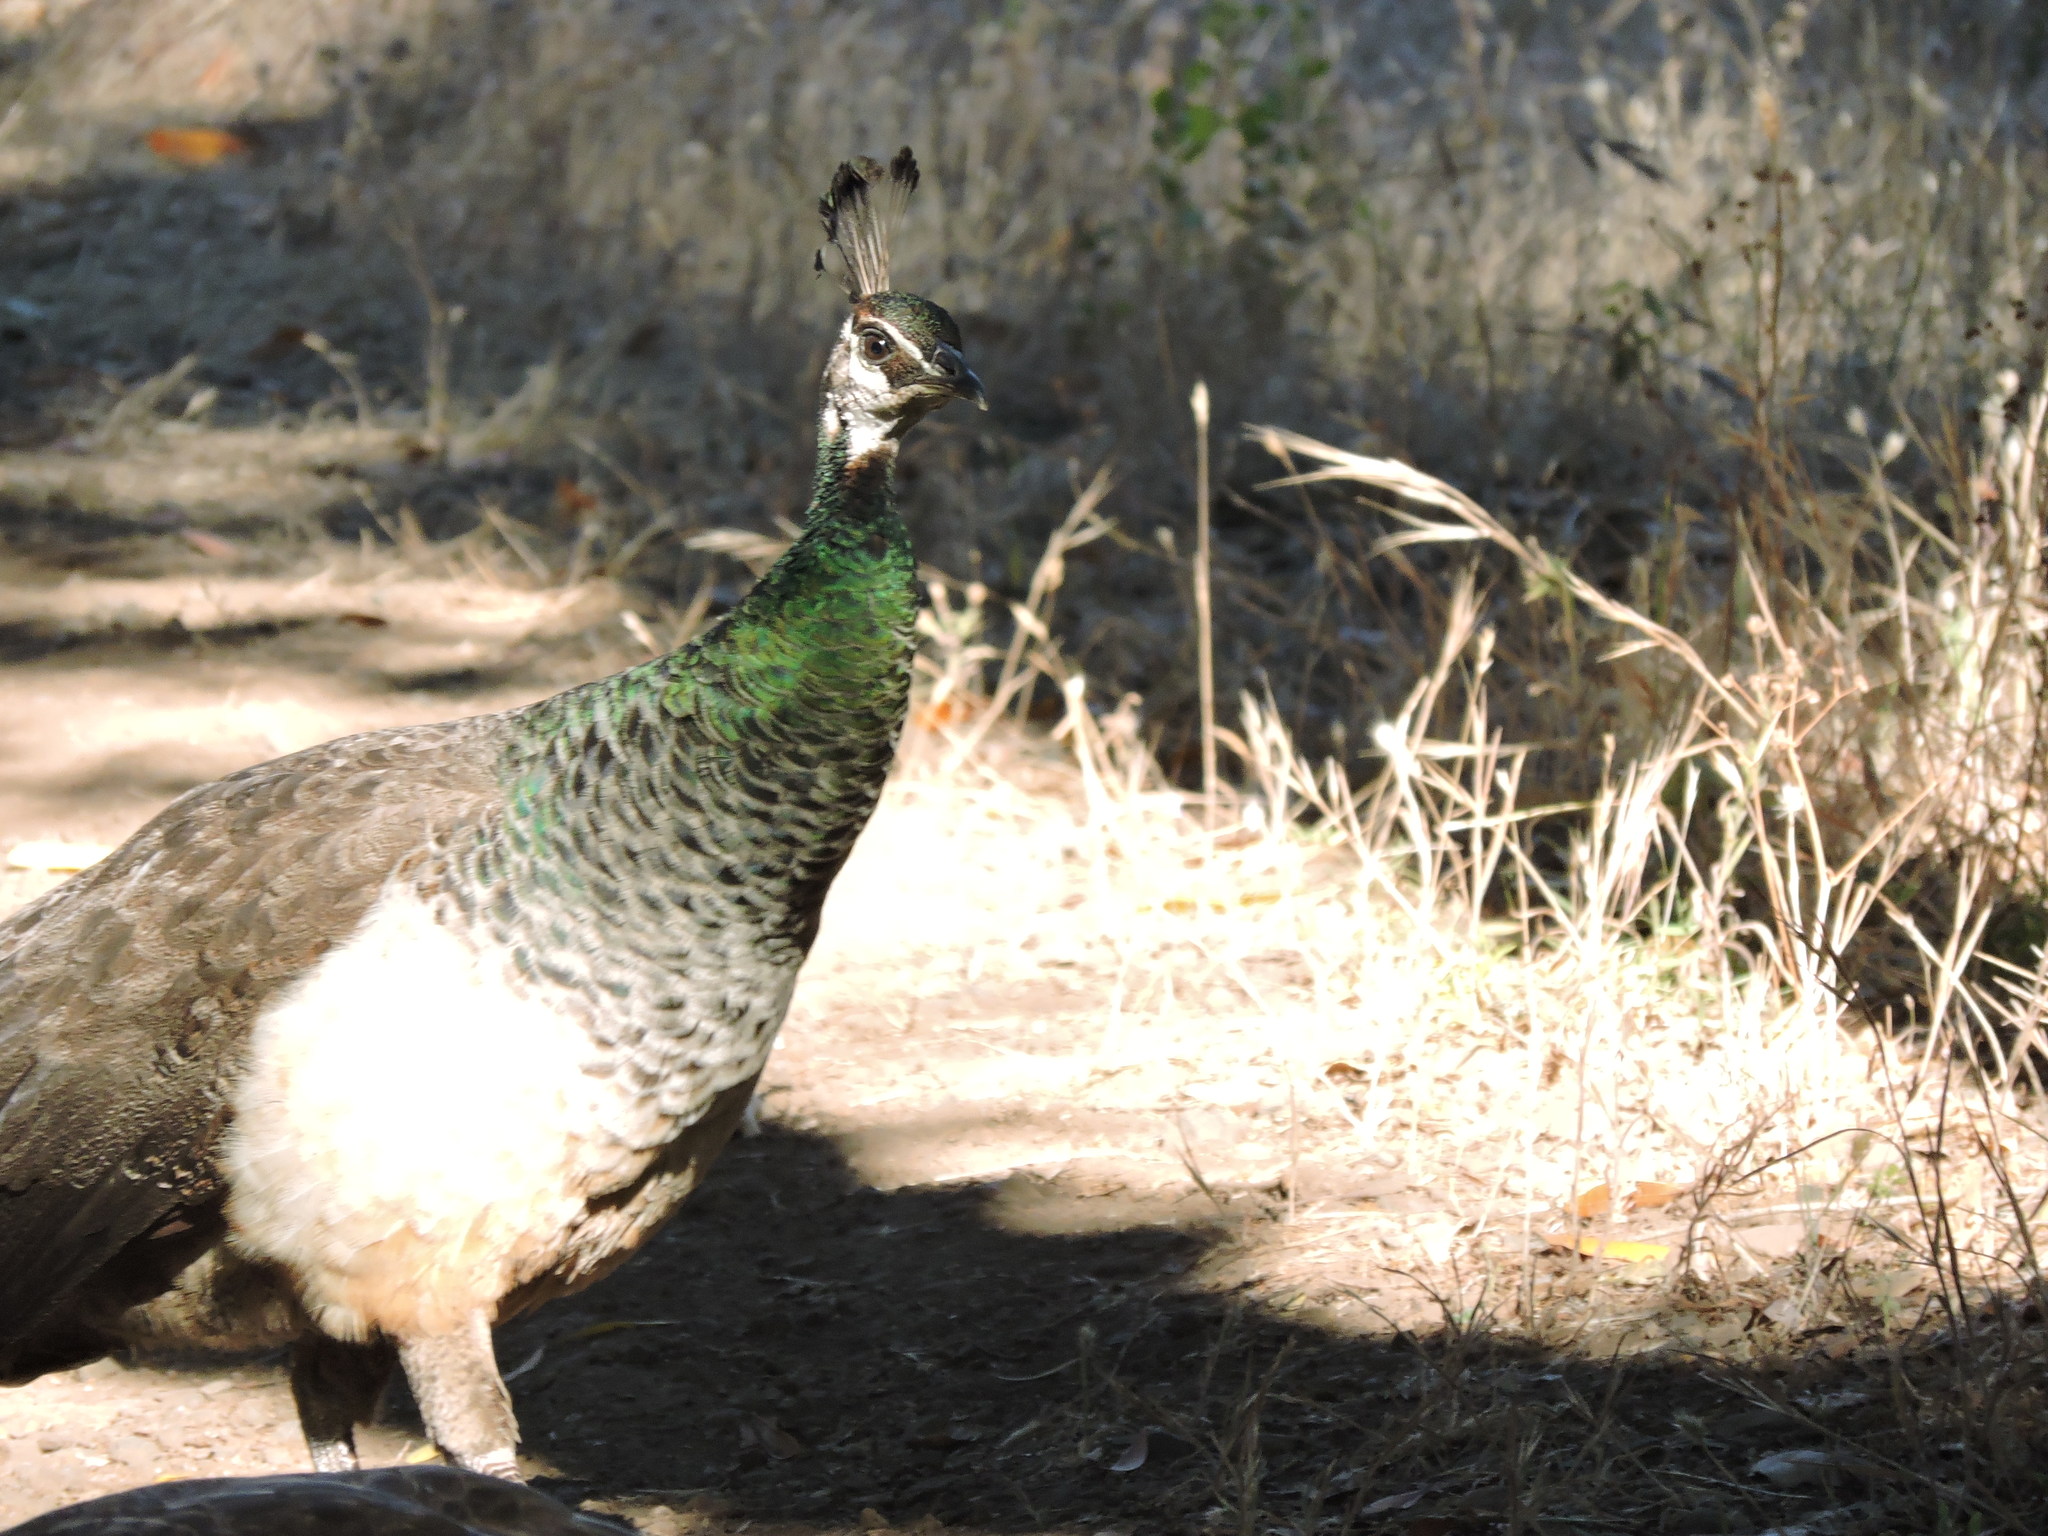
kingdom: Animalia
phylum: Chordata
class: Aves
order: Galliformes
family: Phasianidae
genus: Pavo
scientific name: Pavo cristatus
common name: Indian peafowl
